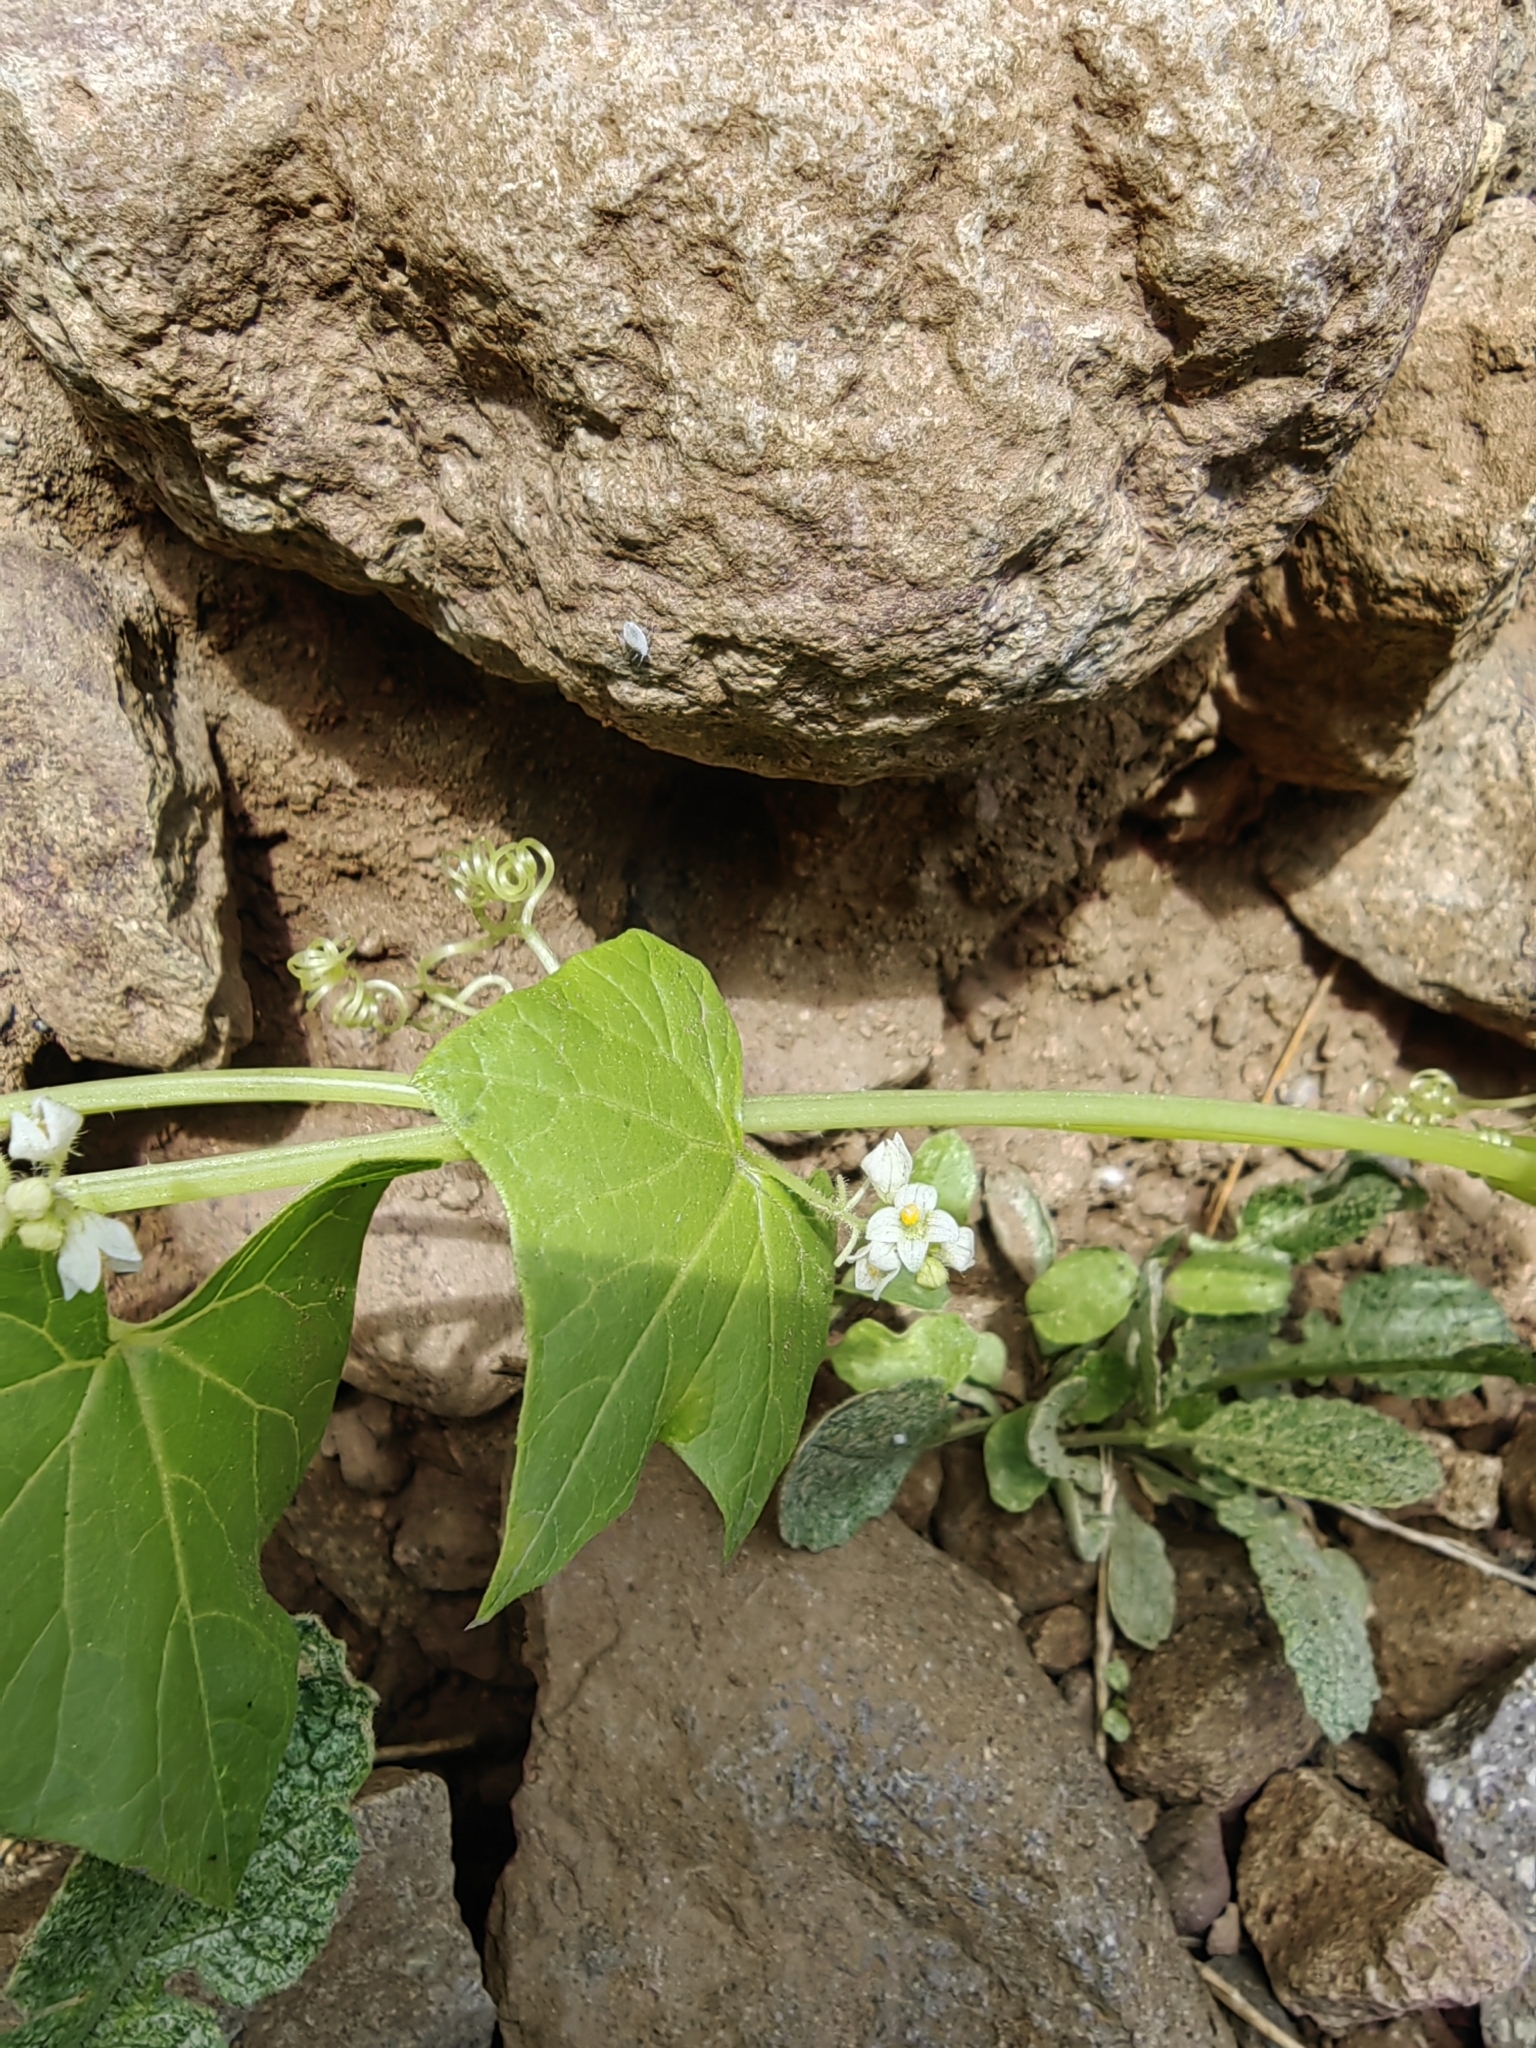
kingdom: Plantae
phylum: Tracheophyta
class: Magnoliopsida
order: Cucurbitales
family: Cucurbitaceae
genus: Sicyos
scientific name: Sicyos baderoa
